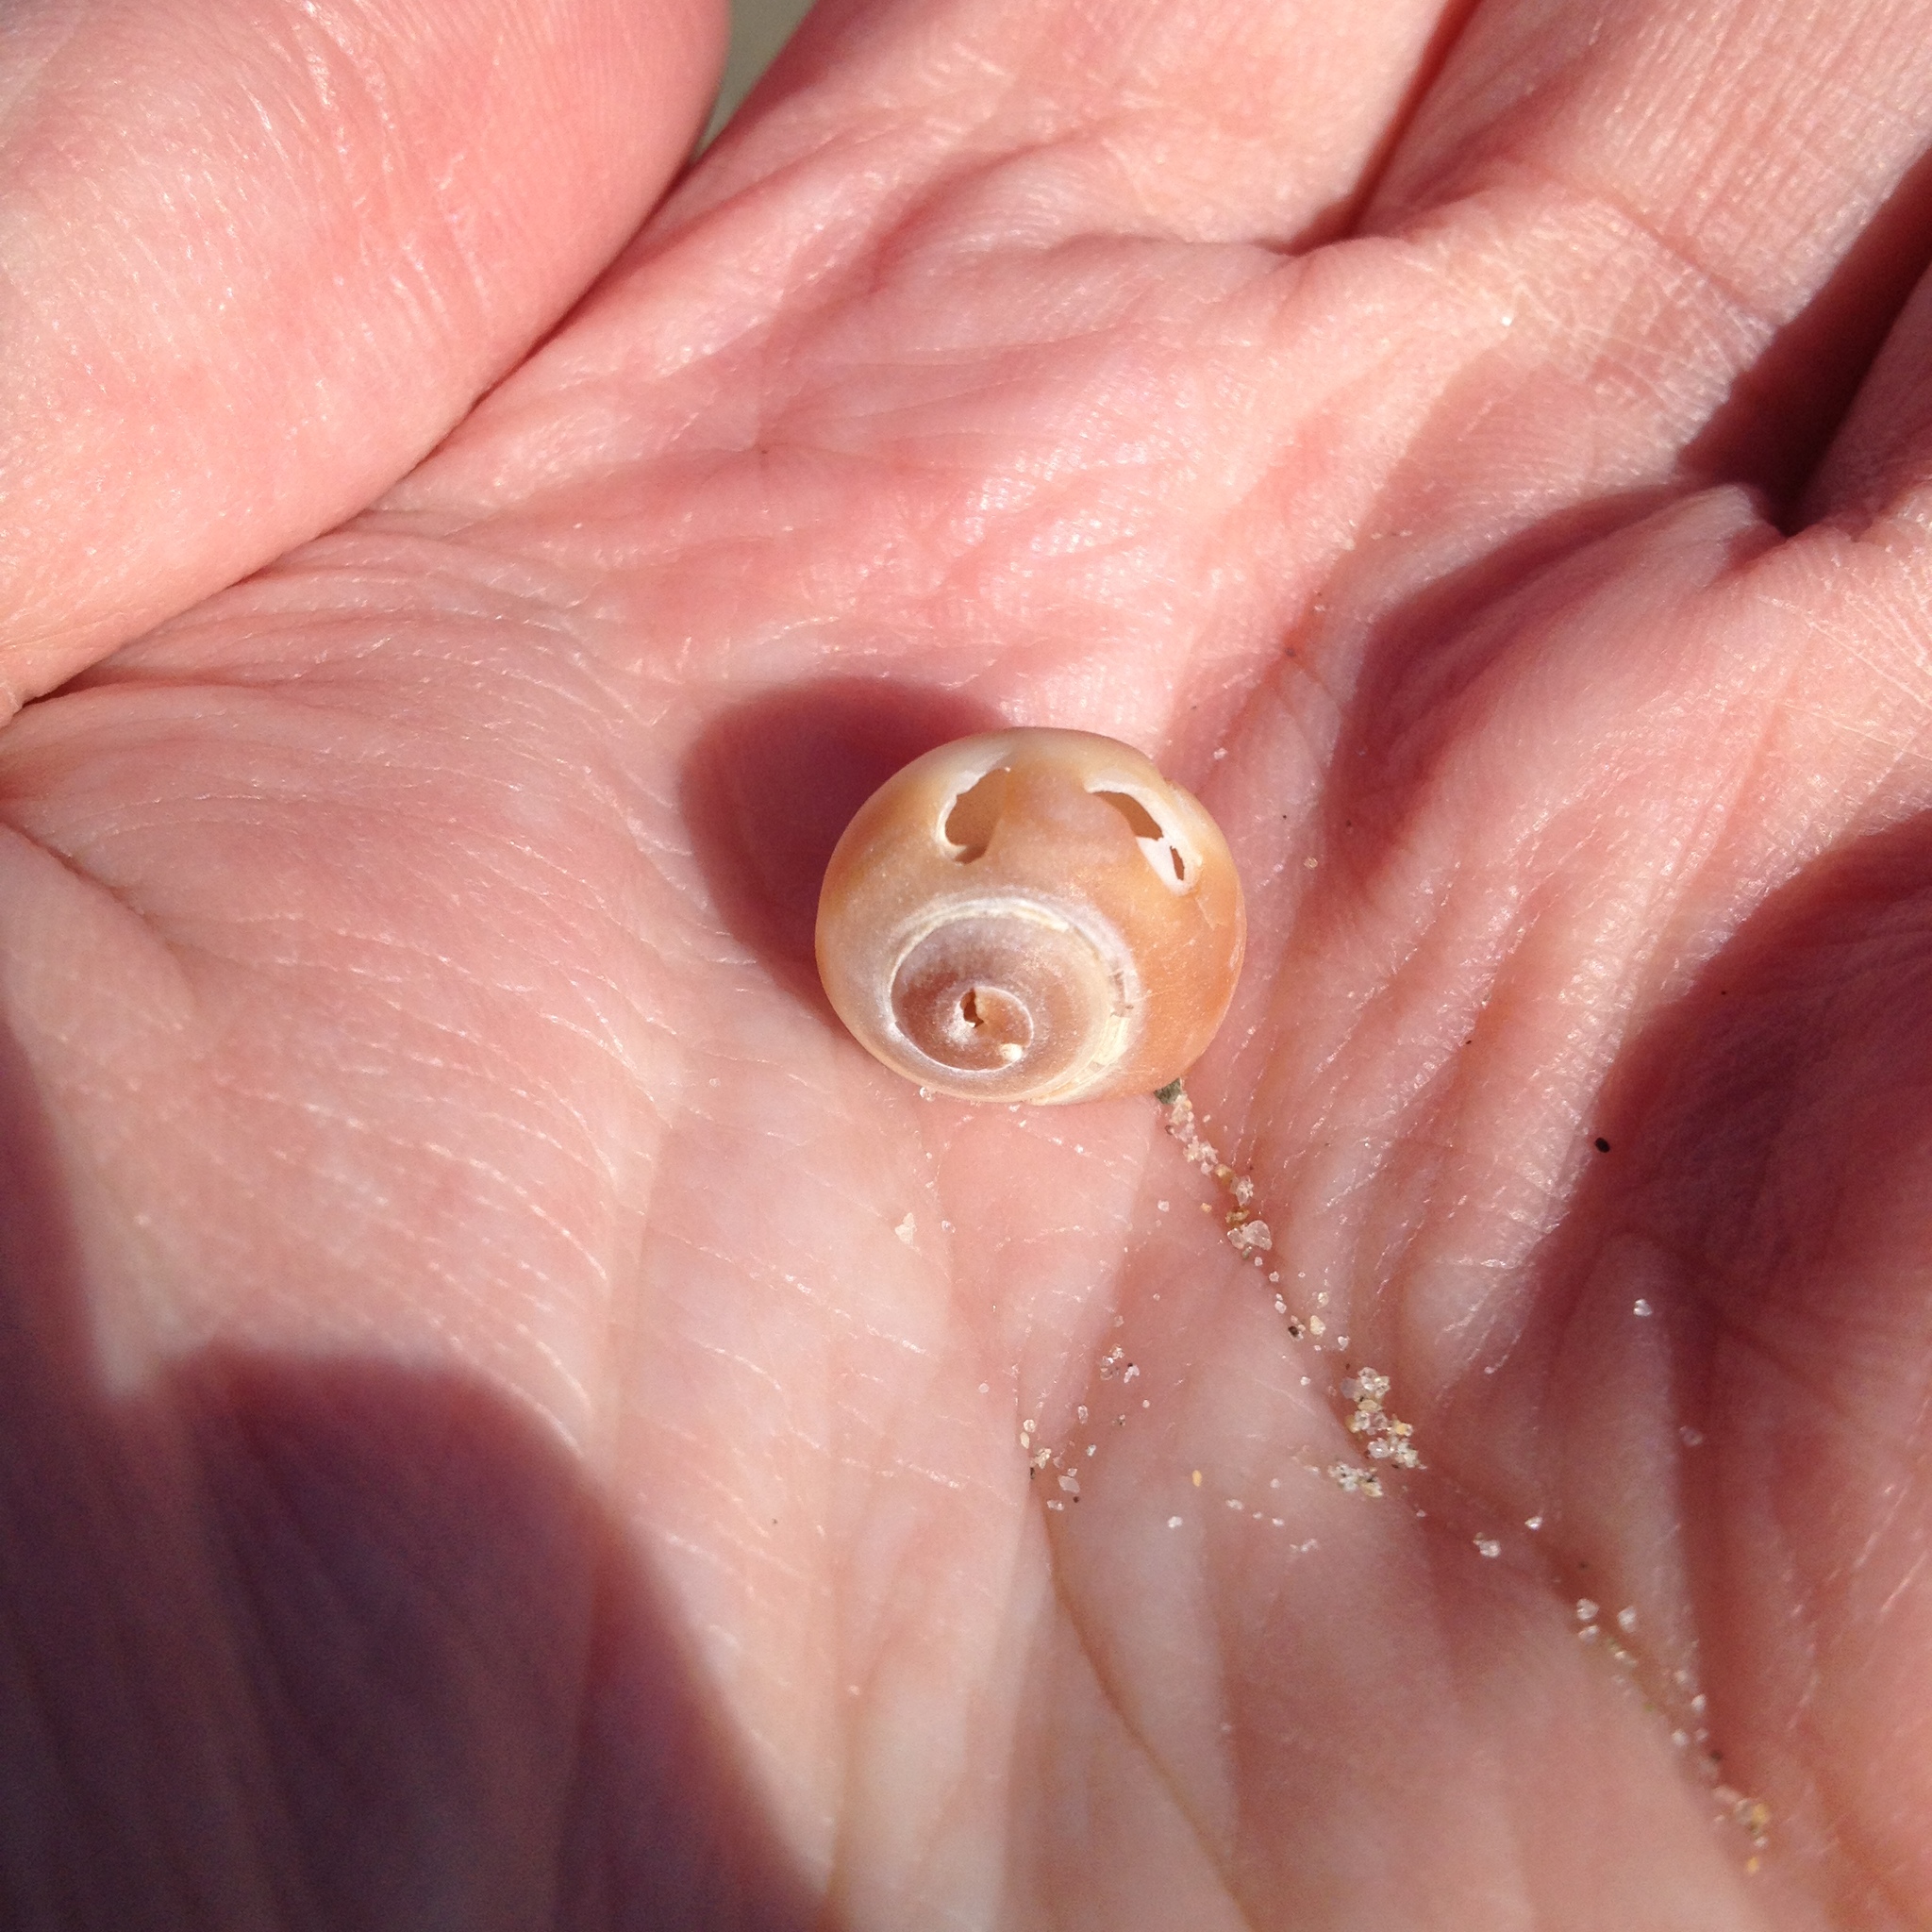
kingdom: Animalia
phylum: Mollusca
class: Gastropoda
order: Littorinimorpha
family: Naticidae
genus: Euspira
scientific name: Euspira heros
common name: Common northern moonsnail
